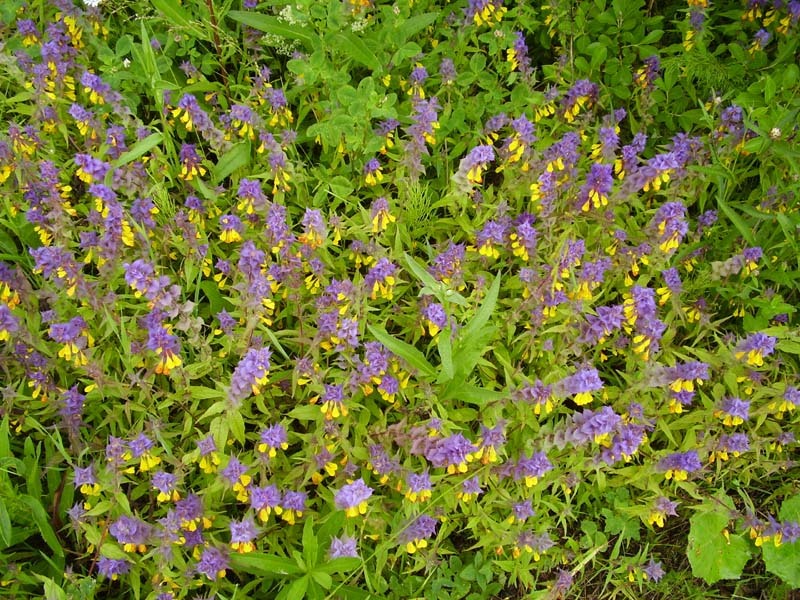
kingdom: Plantae
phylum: Tracheophyta
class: Magnoliopsida
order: Lamiales
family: Orobanchaceae
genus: Melampyrum
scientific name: Melampyrum nemorosum
